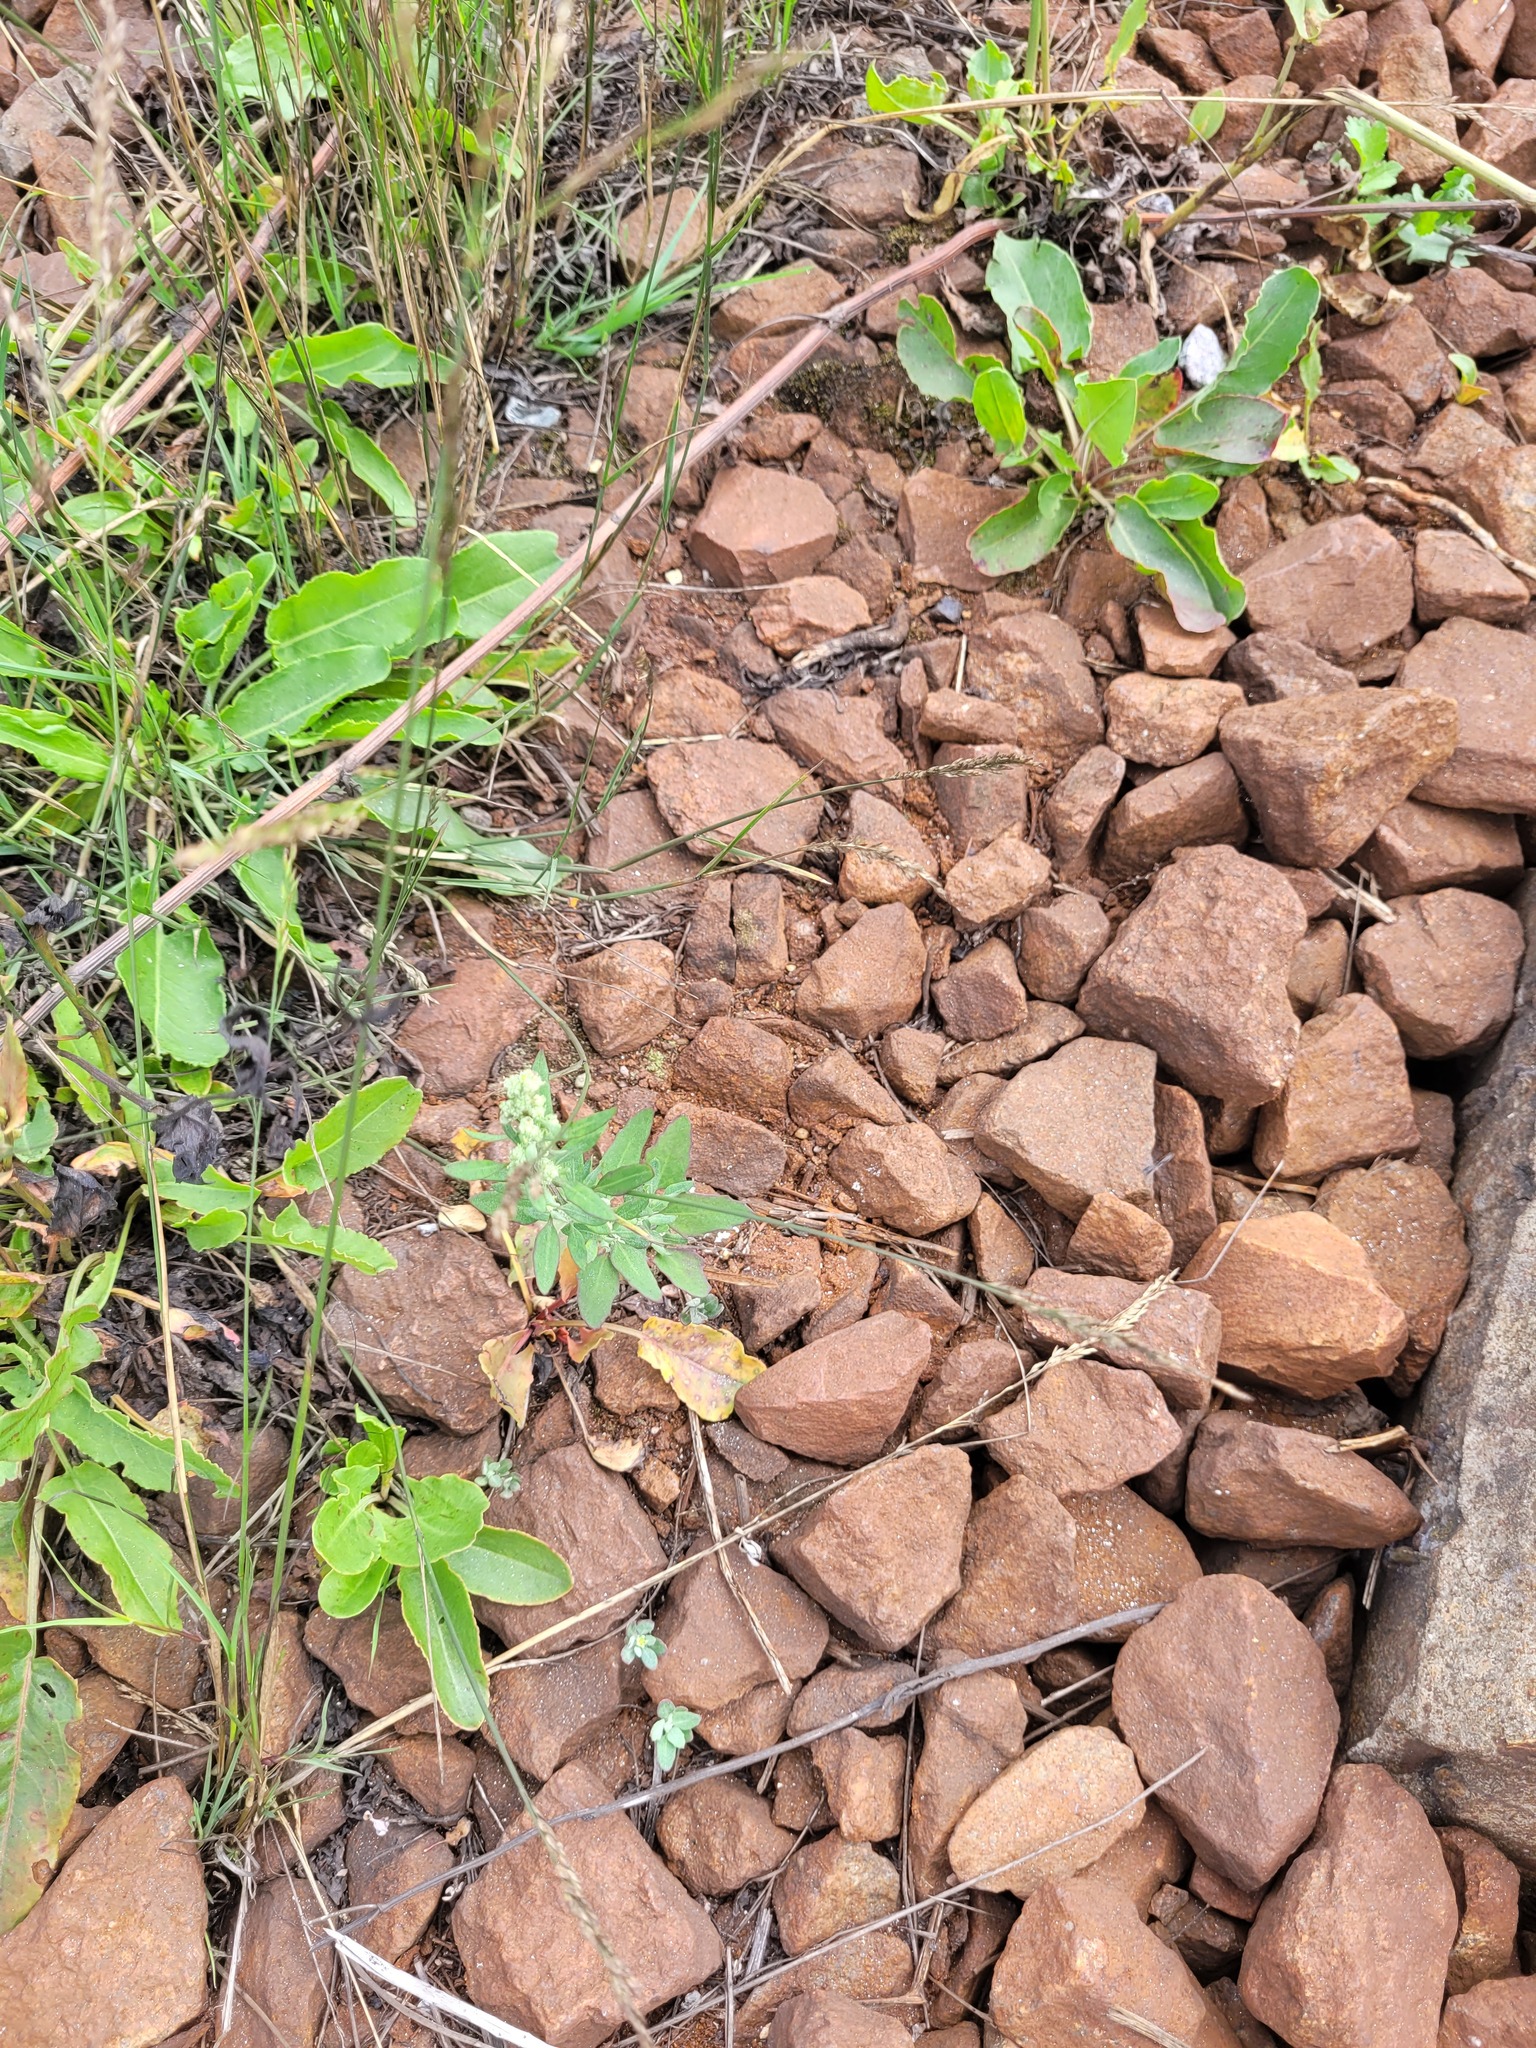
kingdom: Plantae
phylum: Tracheophyta
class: Magnoliopsida
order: Caryophyllales
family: Amaranthaceae
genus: Chenopodium
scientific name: Chenopodium album
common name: Fat-hen
